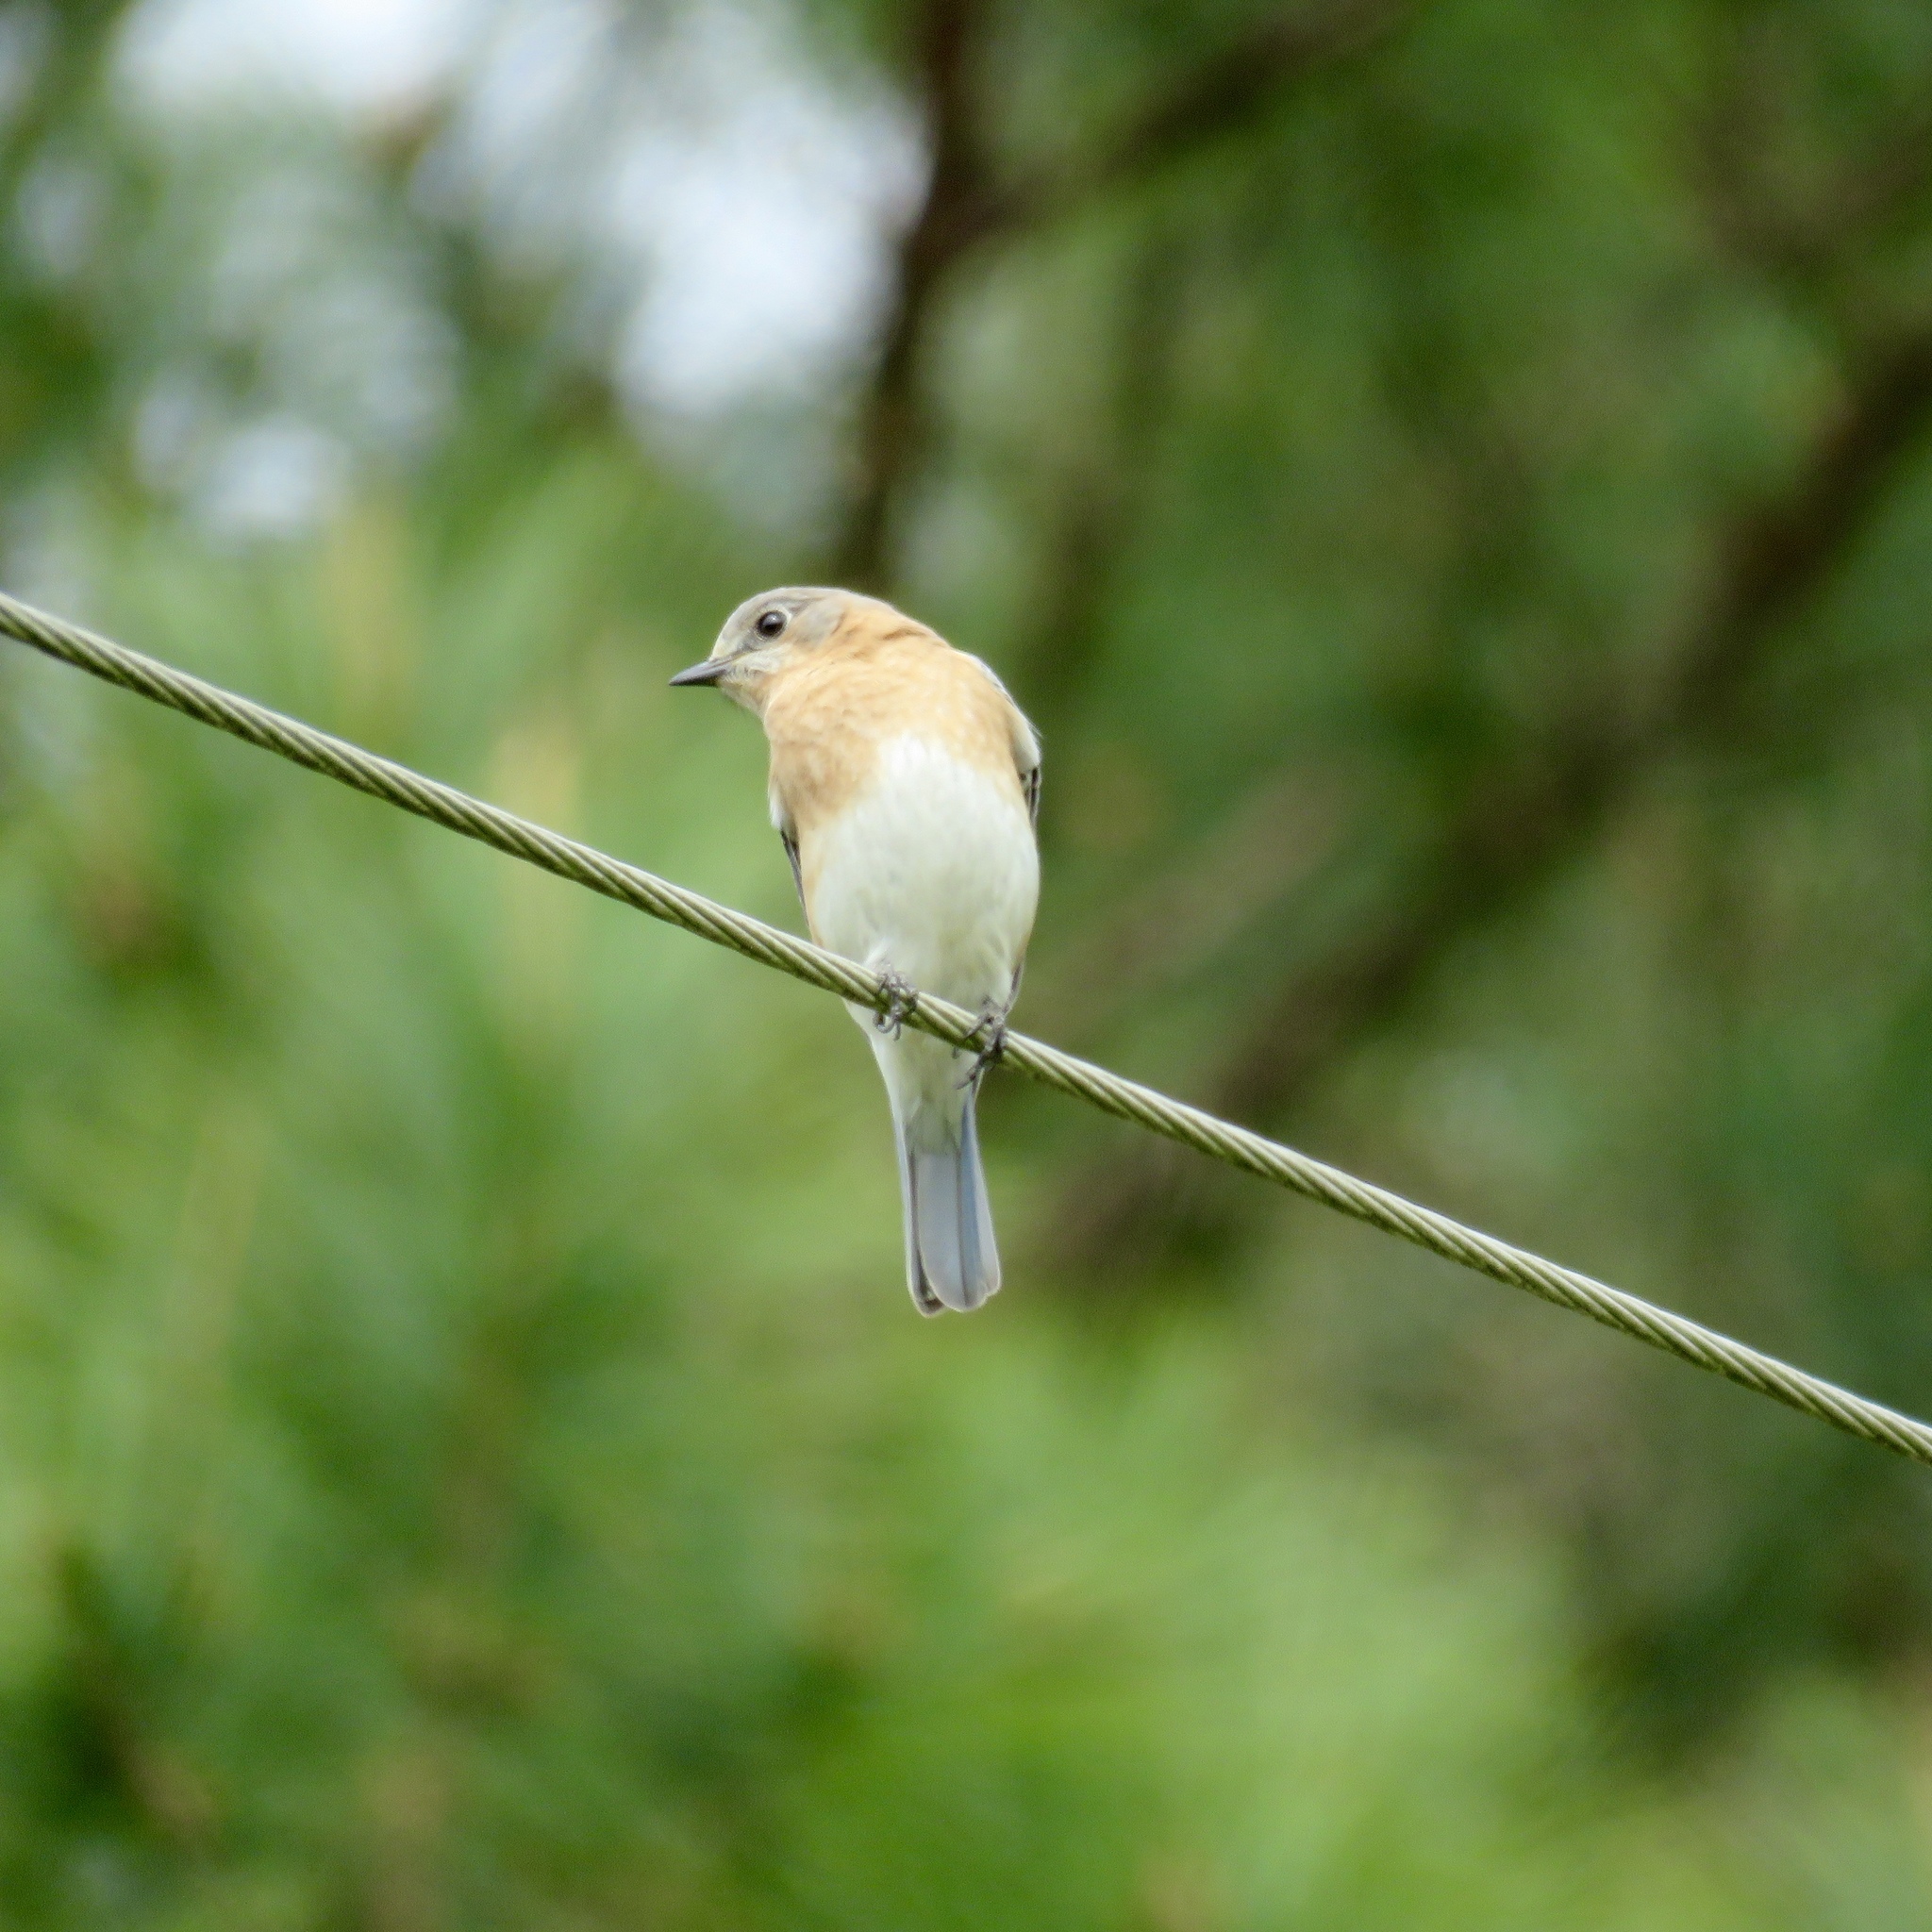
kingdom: Animalia
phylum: Chordata
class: Aves
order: Passeriformes
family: Turdidae
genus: Sialia
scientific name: Sialia sialis
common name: Eastern bluebird
